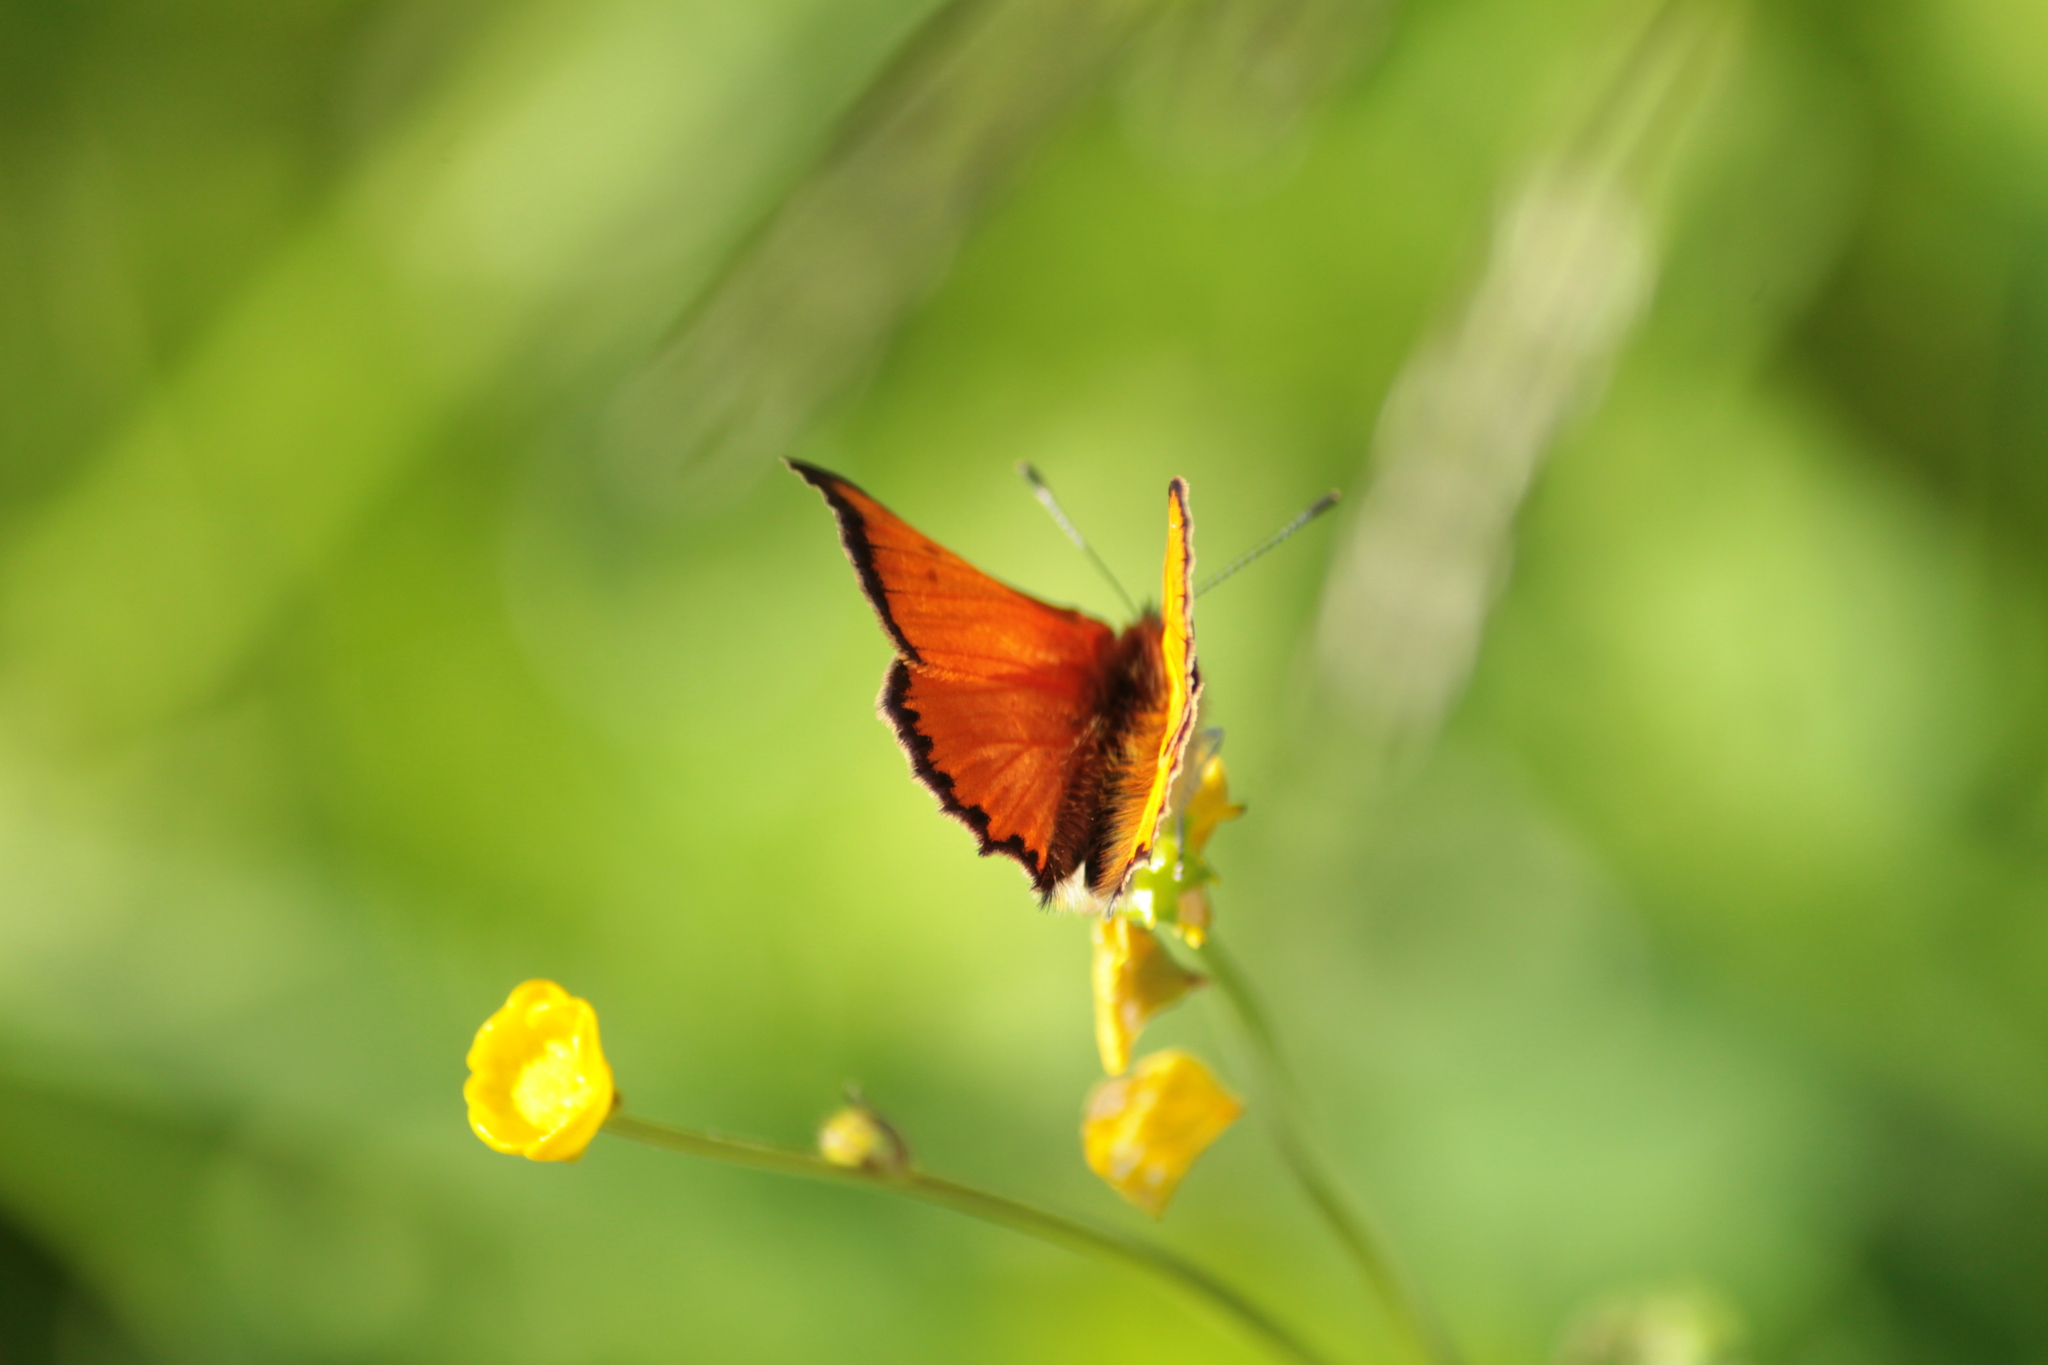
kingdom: Animalia
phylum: Arthropoda
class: Insecta
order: Lepidoptera
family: Lycaenidae
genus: Lycaena
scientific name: Lycaena virgaureae
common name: Scarce copper
